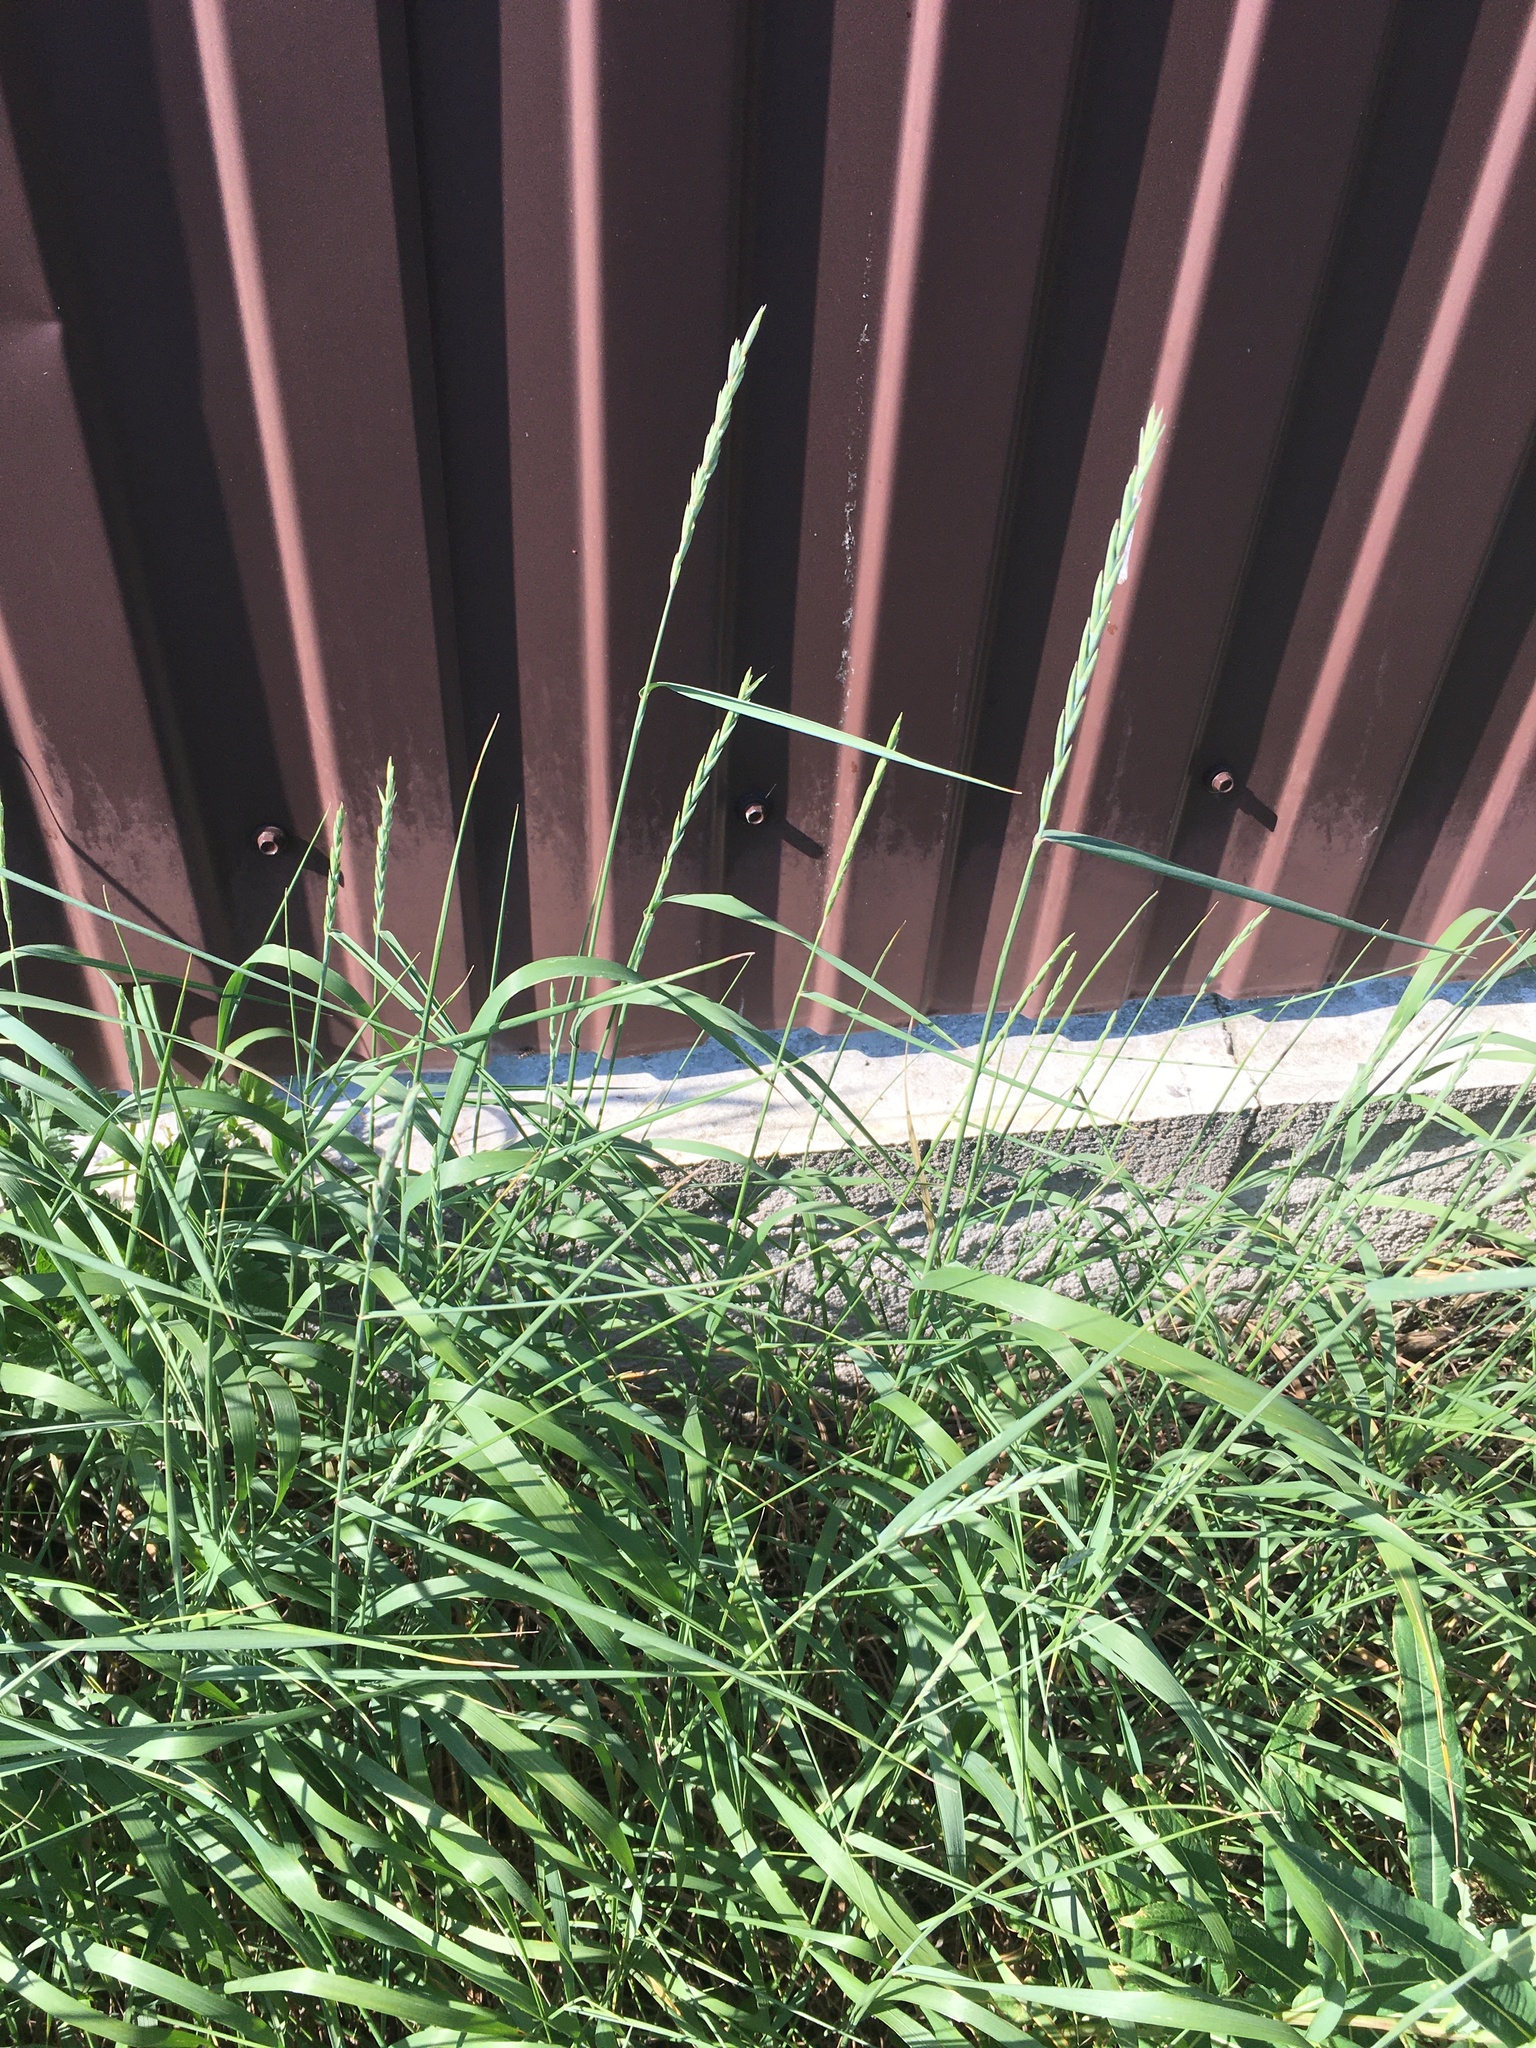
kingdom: Plantae
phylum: Tracheophyta
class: Liliopsida
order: Poales
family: Poaceae
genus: Elymus
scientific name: Elymus repens
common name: Quackgrass
